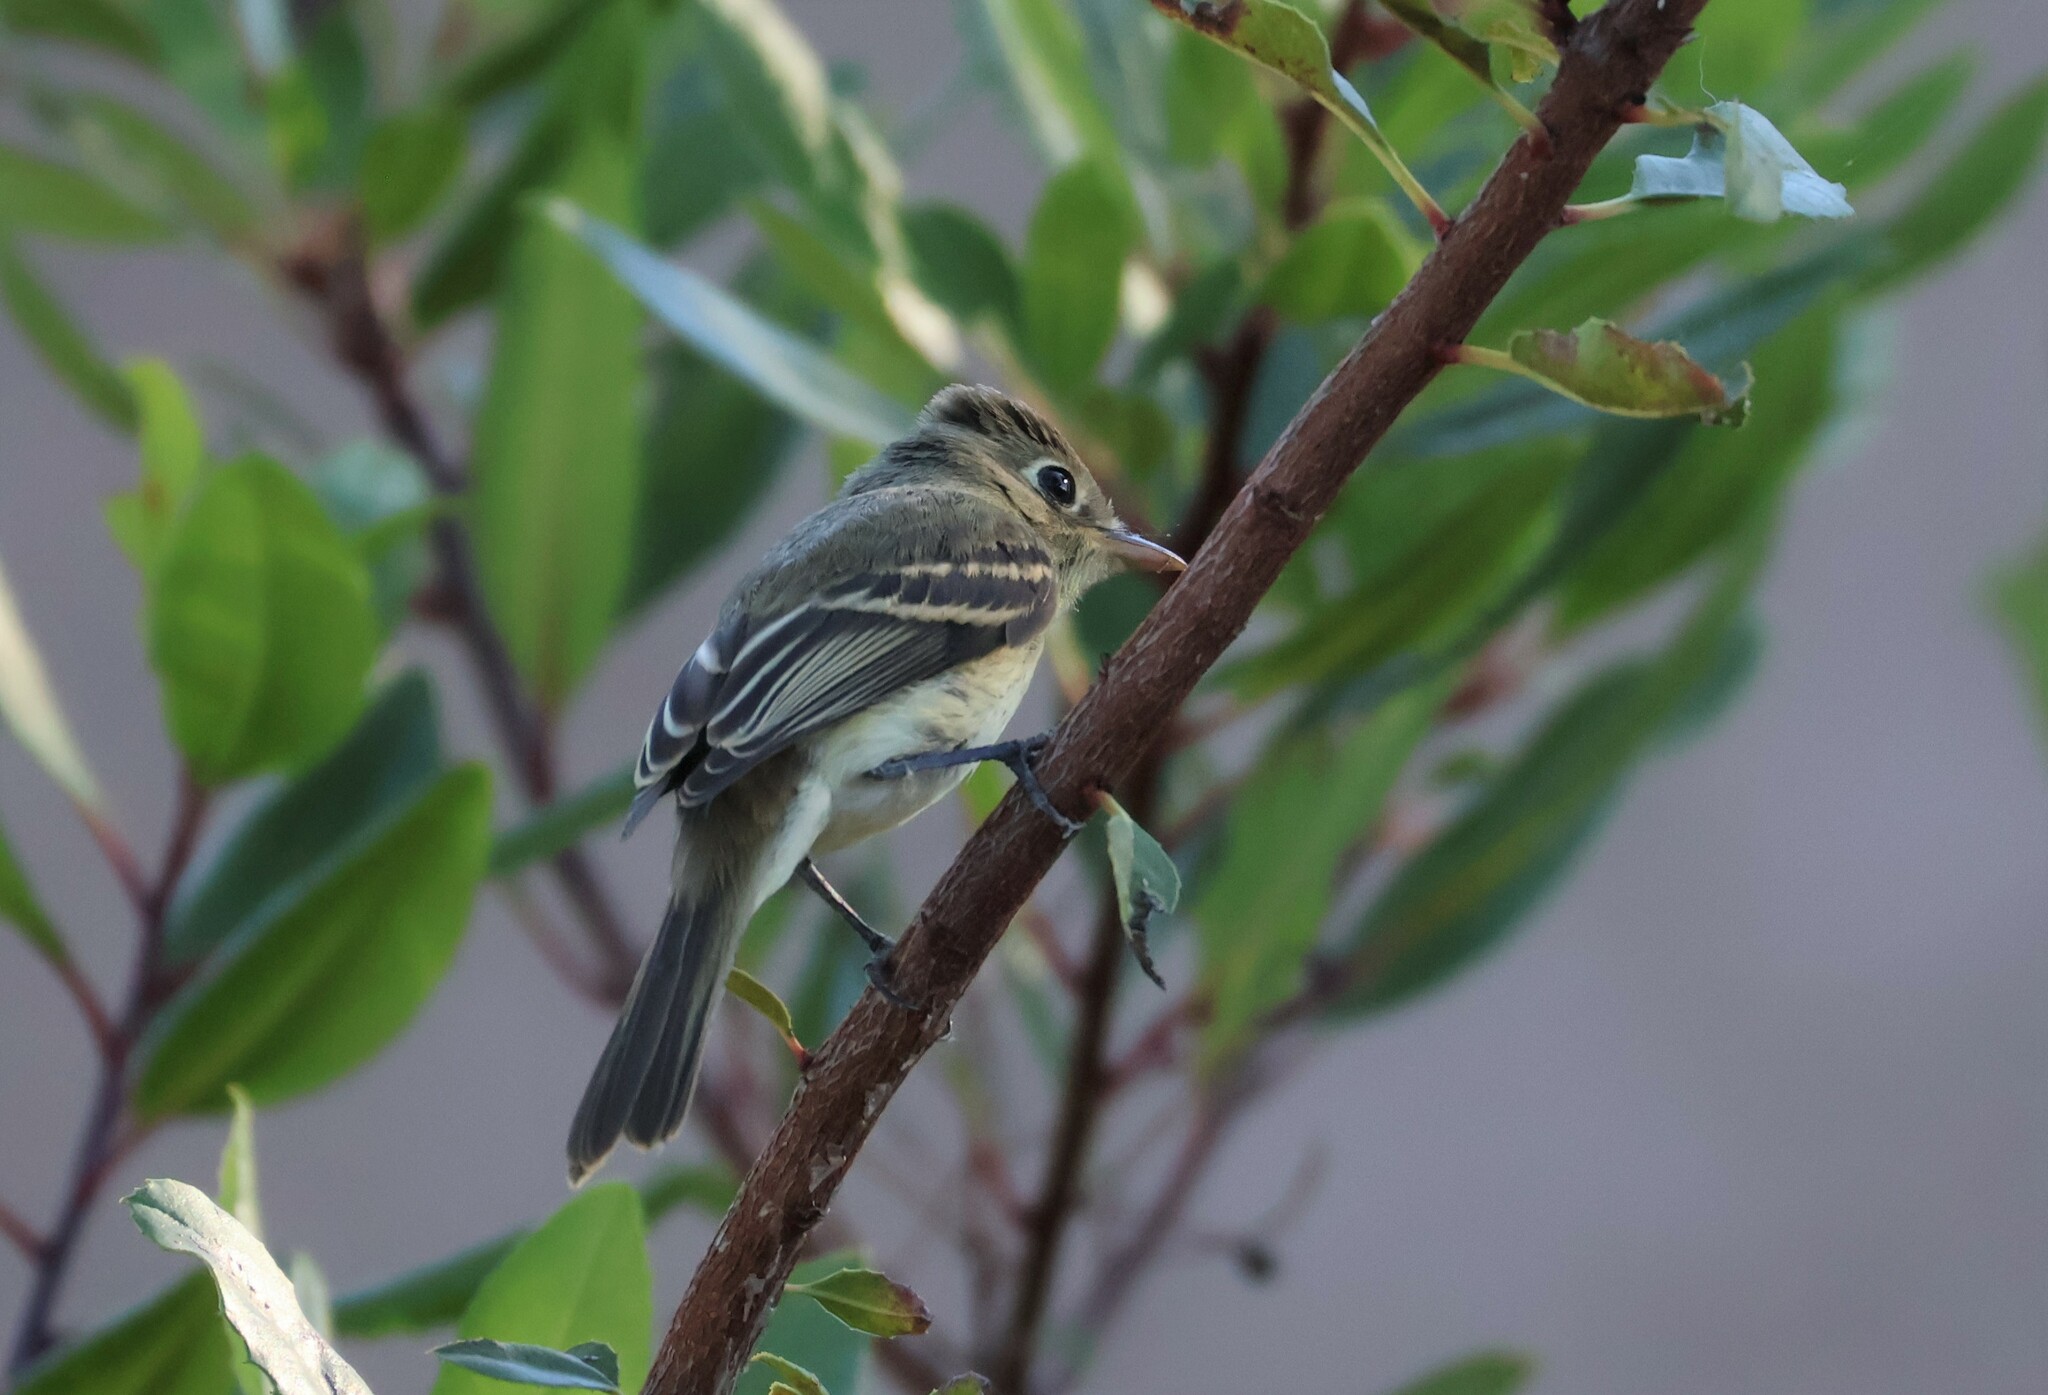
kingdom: Animalia
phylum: Chordata
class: Aves
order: Passeriformes
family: Tyrannidae
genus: Empidonax
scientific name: Empidonax difficilis
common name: Pacific-slope flycatcher
